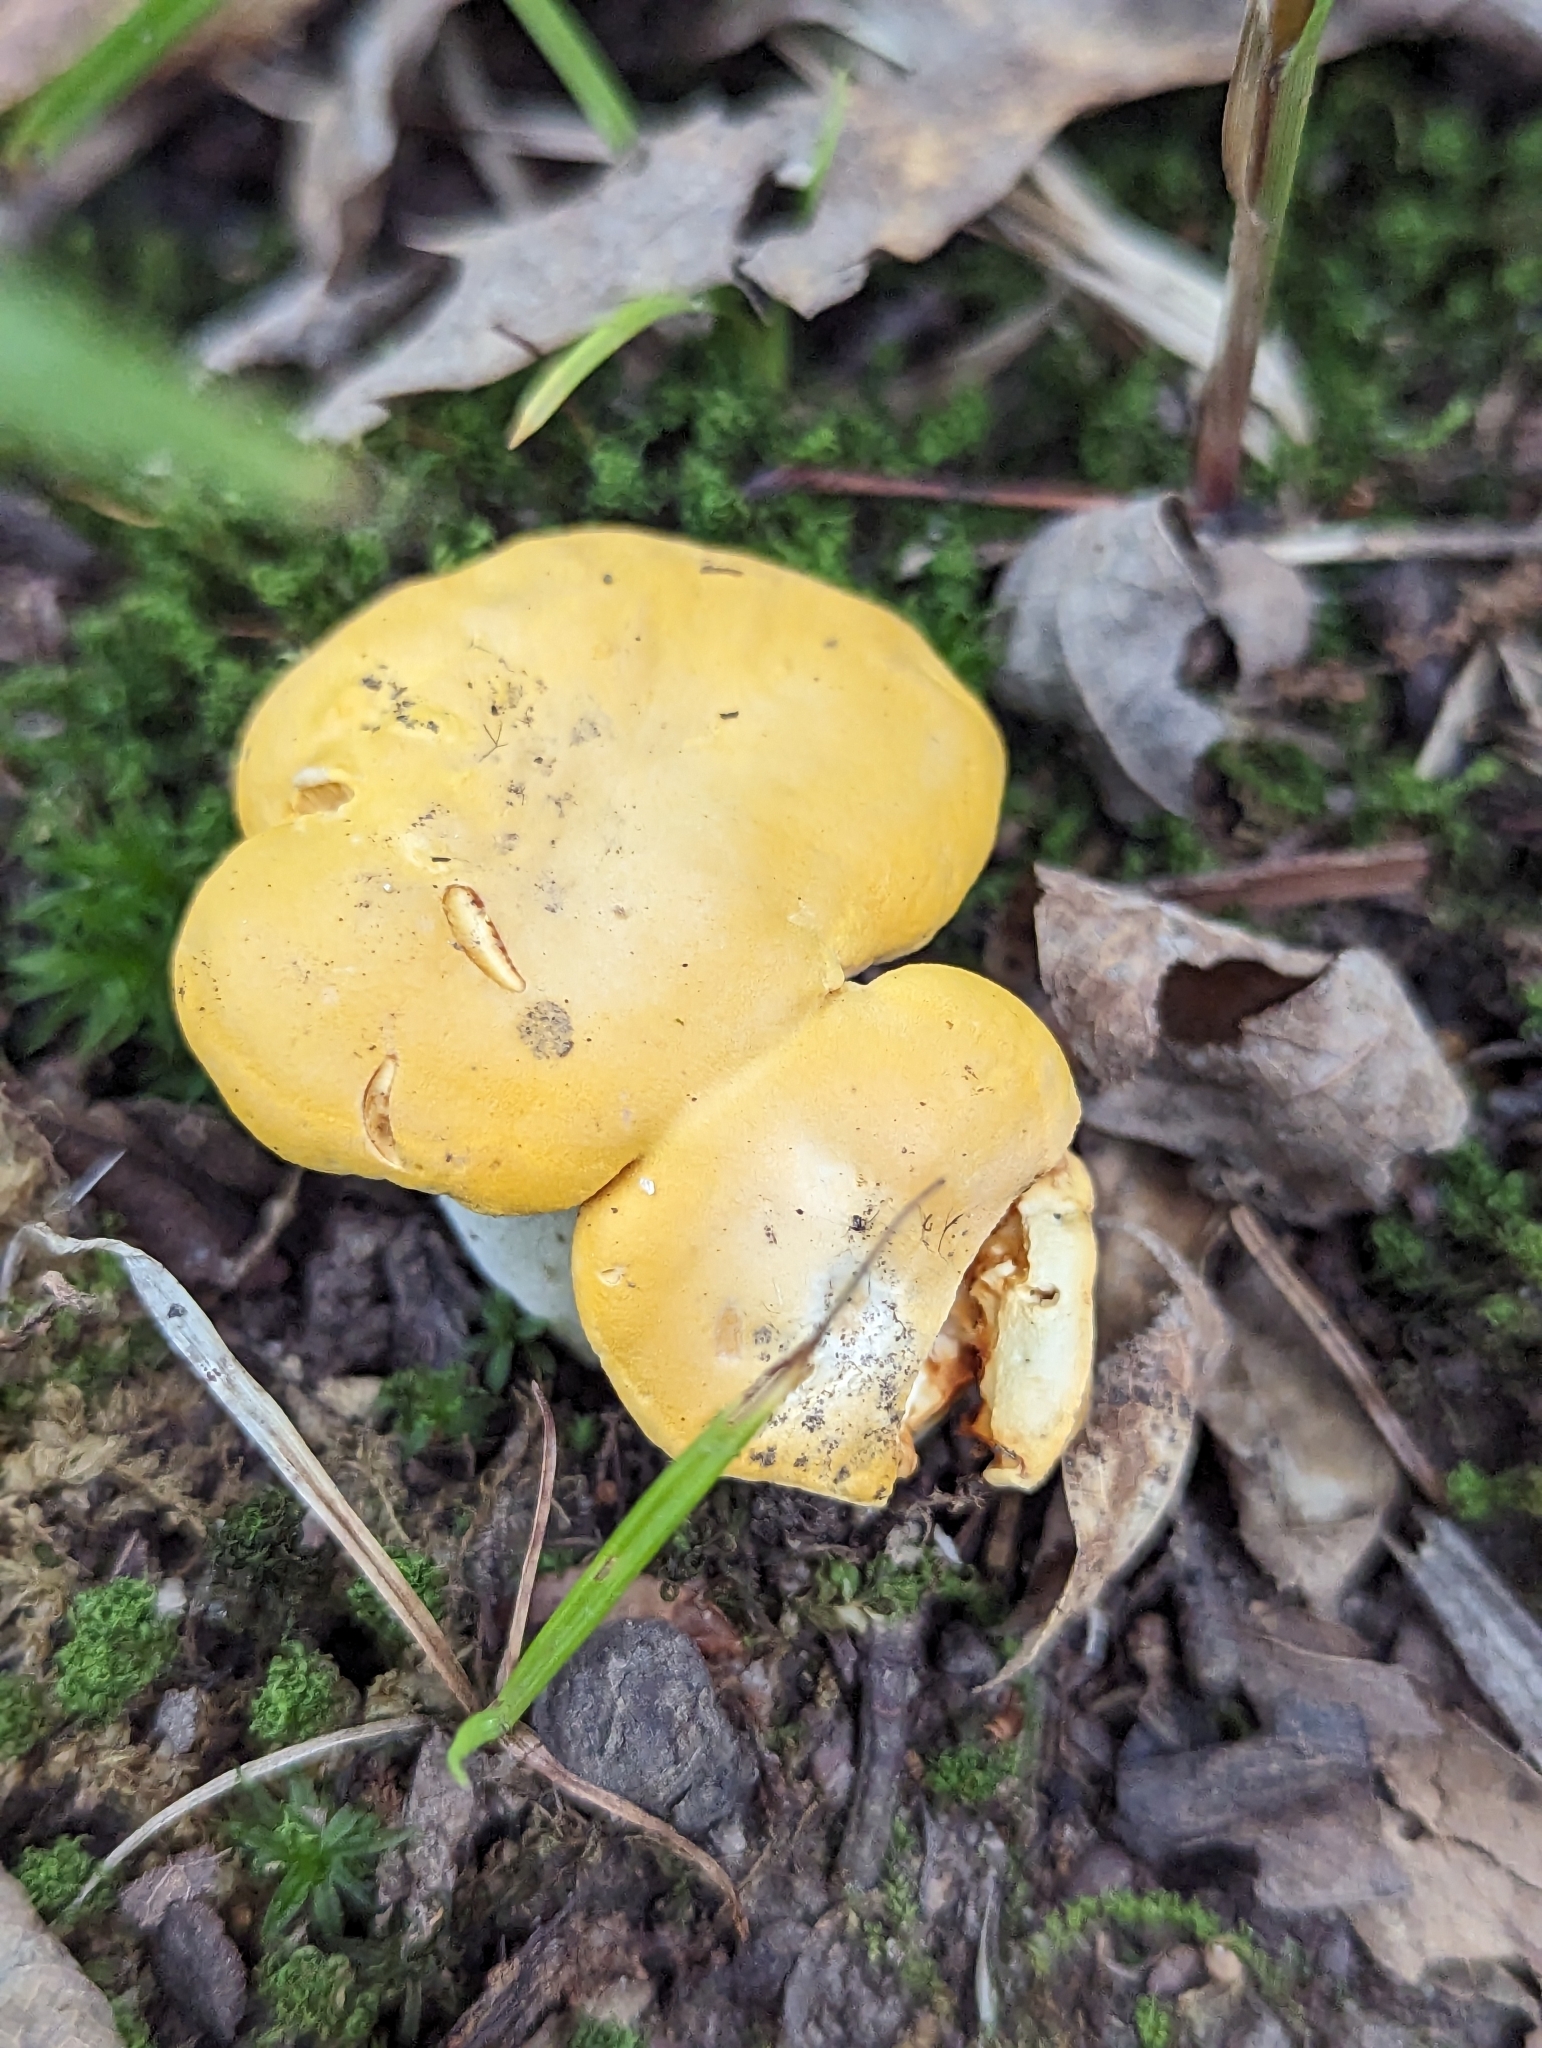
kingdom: Fungi
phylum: Basidiomycota
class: Agaricomycetes
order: Cantharellales
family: Hydnaceae
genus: Cantharellus
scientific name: Cantharellus phasmatis
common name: Ghost chanterelle
